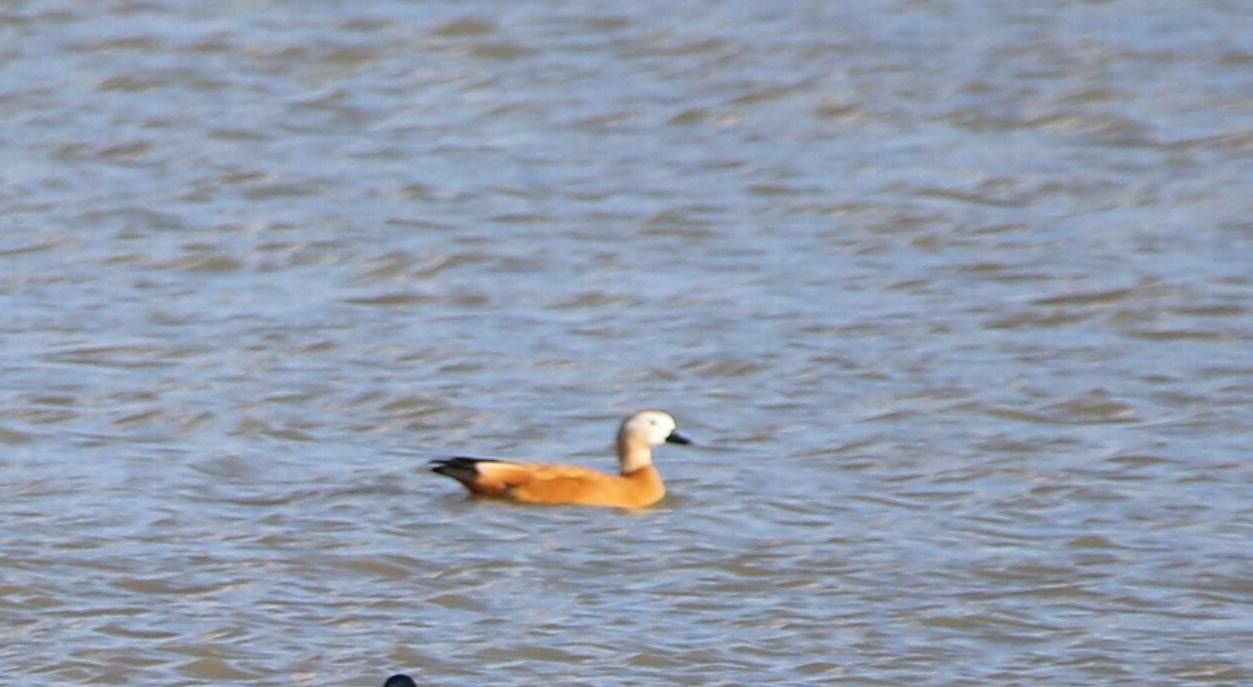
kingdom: Animalia
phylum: Chordata
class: Aves
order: Anseriformes
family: Anatidae
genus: Tadorna
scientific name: Tadorna ferruginea
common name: Ruddy shelduck
